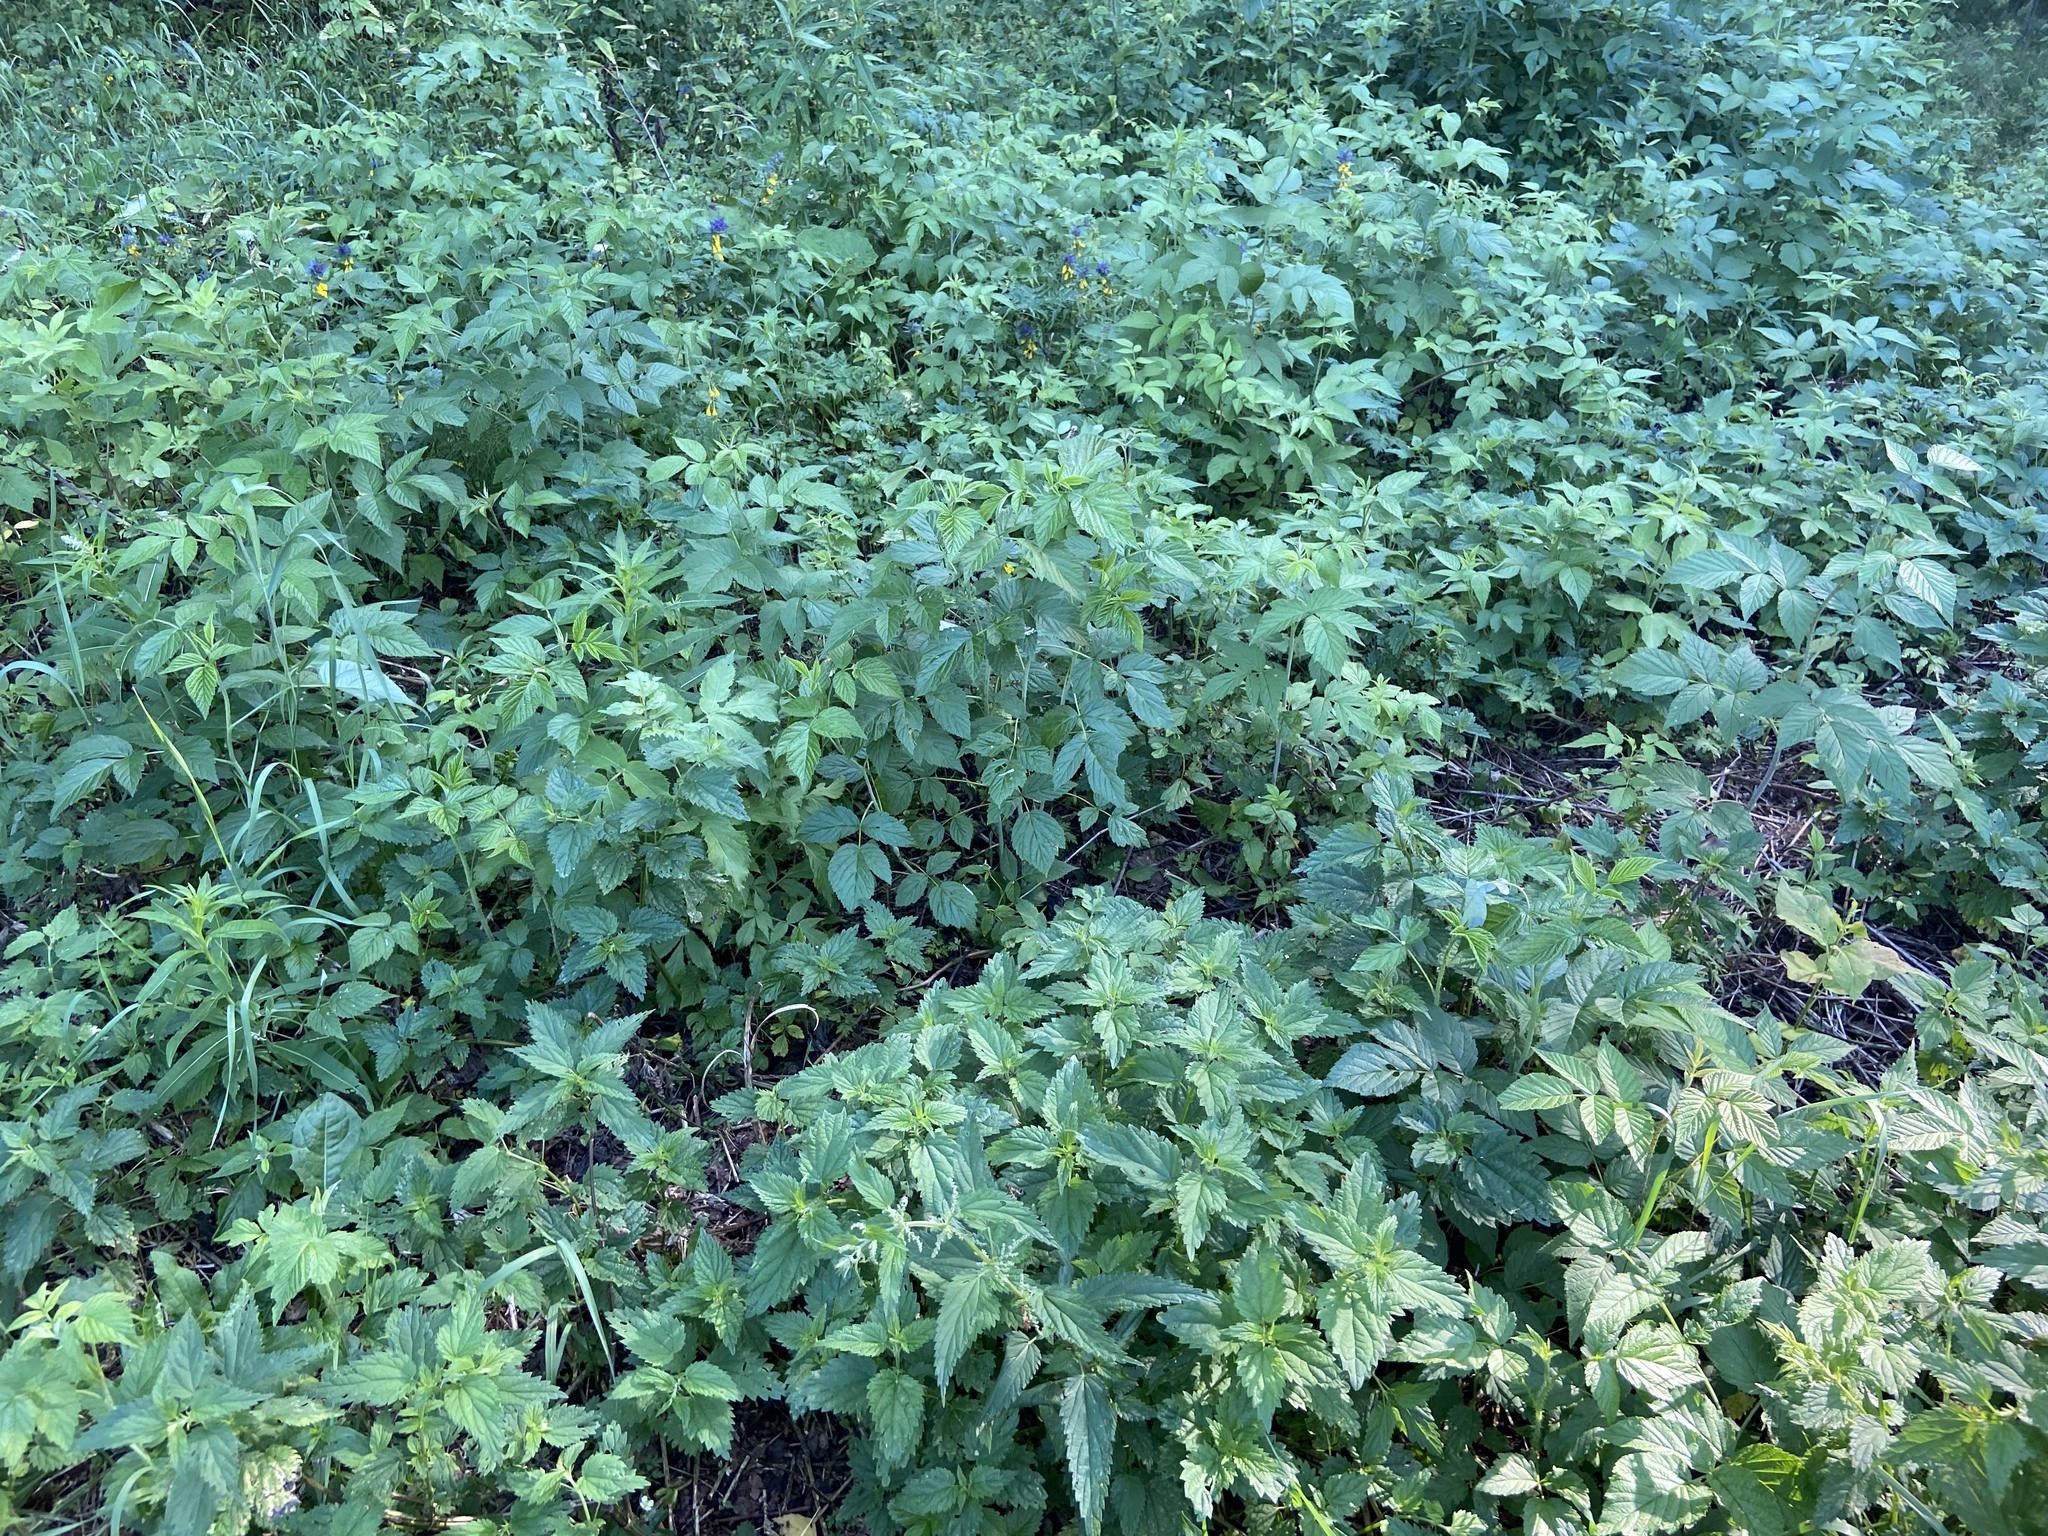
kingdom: Plantae
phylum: Tracheophyta
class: Magnoliopsida
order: Rosales
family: Rosaceae
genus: Rubus
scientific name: Rubus idaeus
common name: Raspberry
